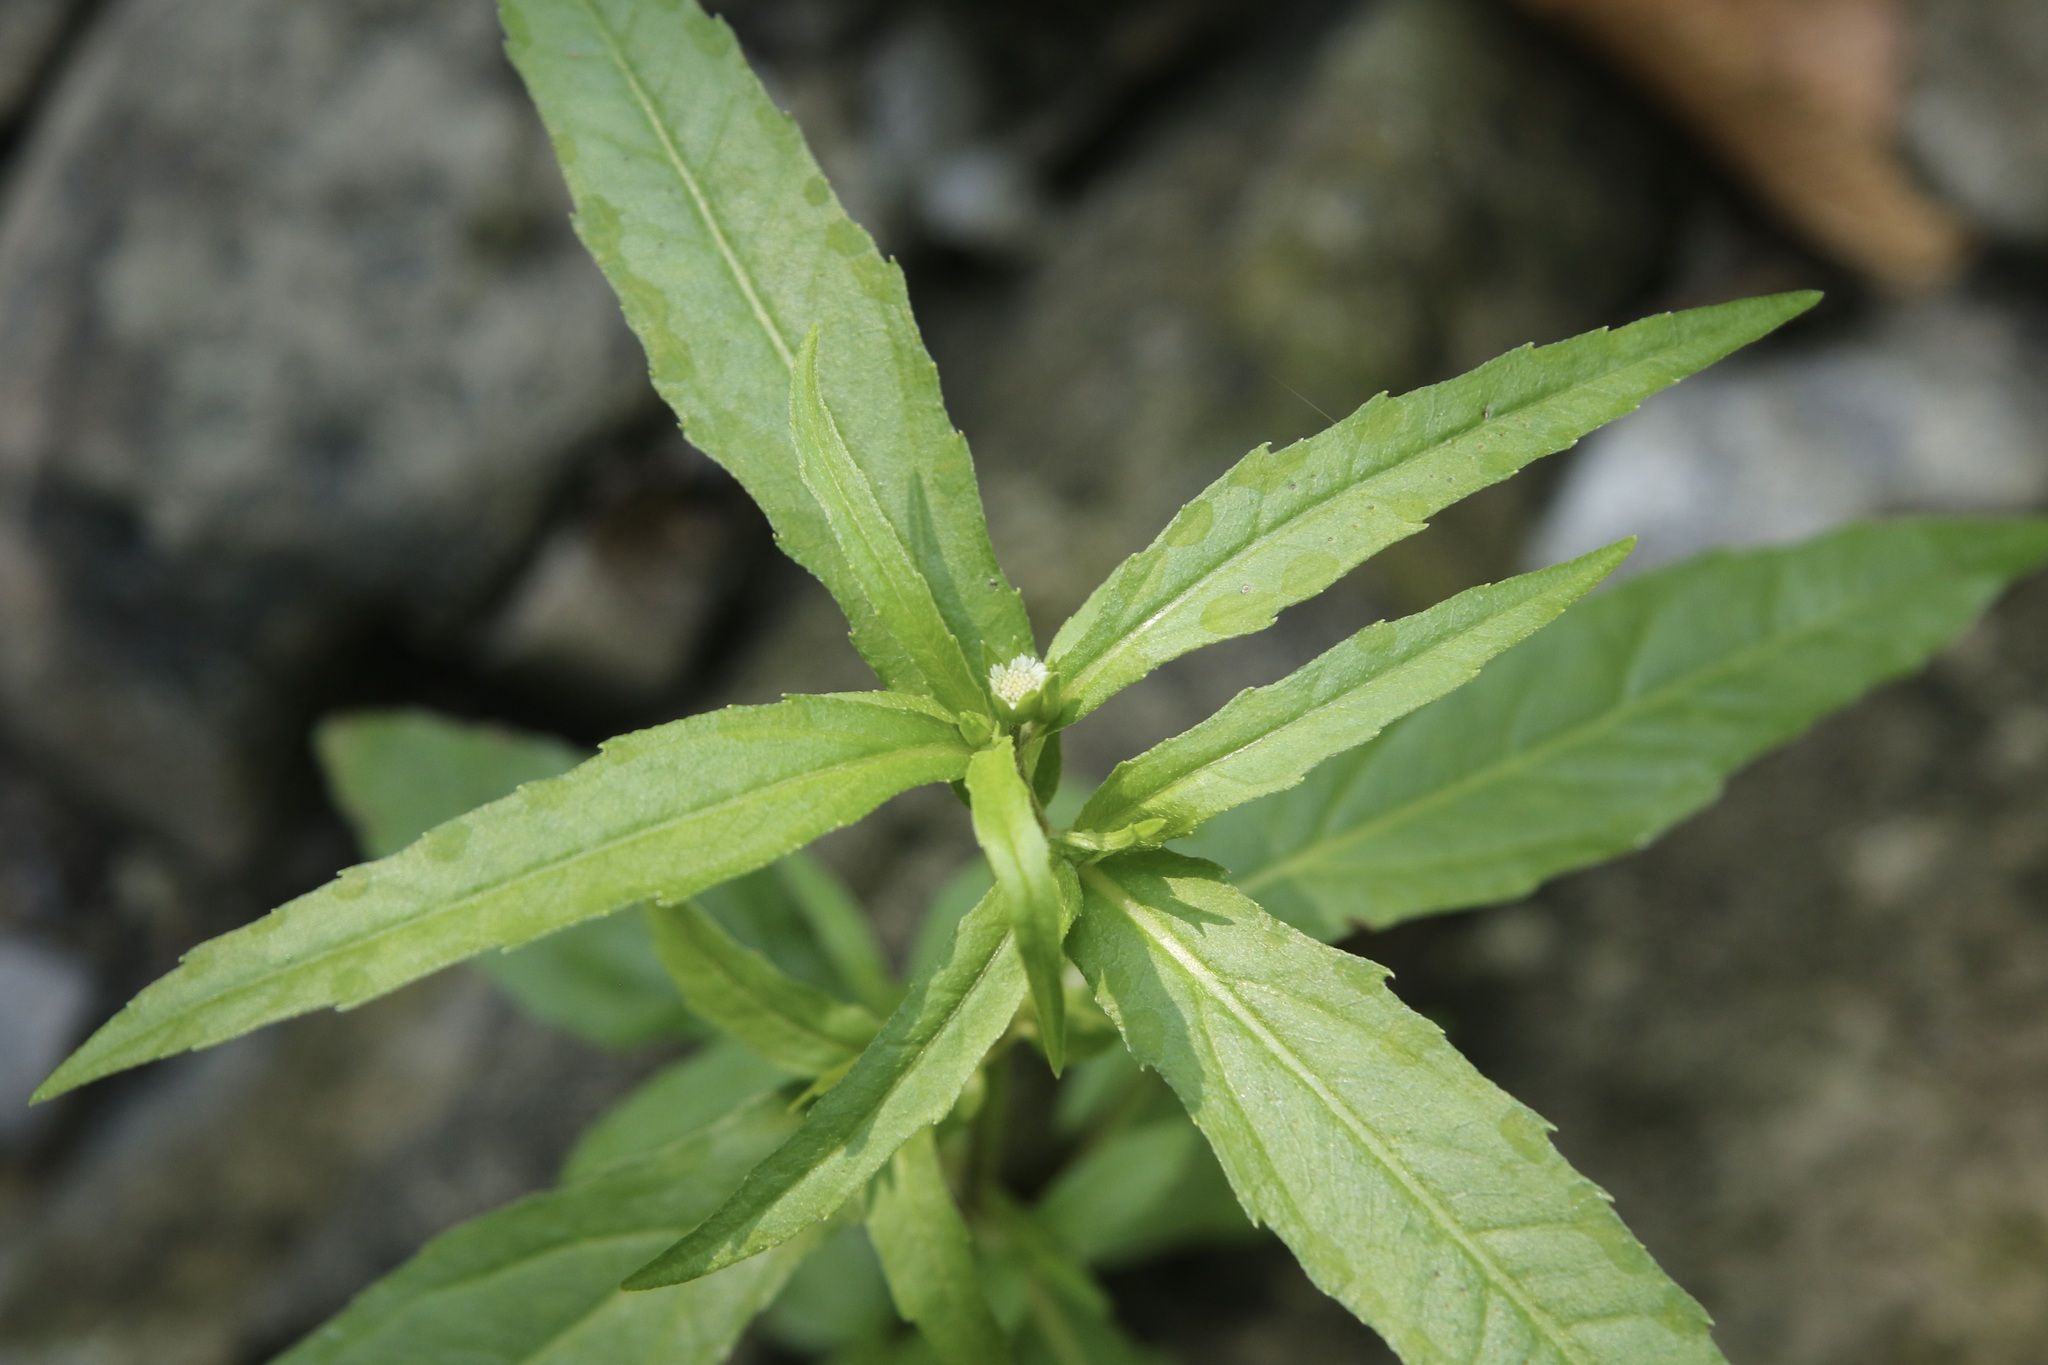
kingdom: Plantae
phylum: Tracheophyta
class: Magnoliopsida
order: Asterales
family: Asteraceae
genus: Eclipta
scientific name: Eclipta prostrata
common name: False daisy
